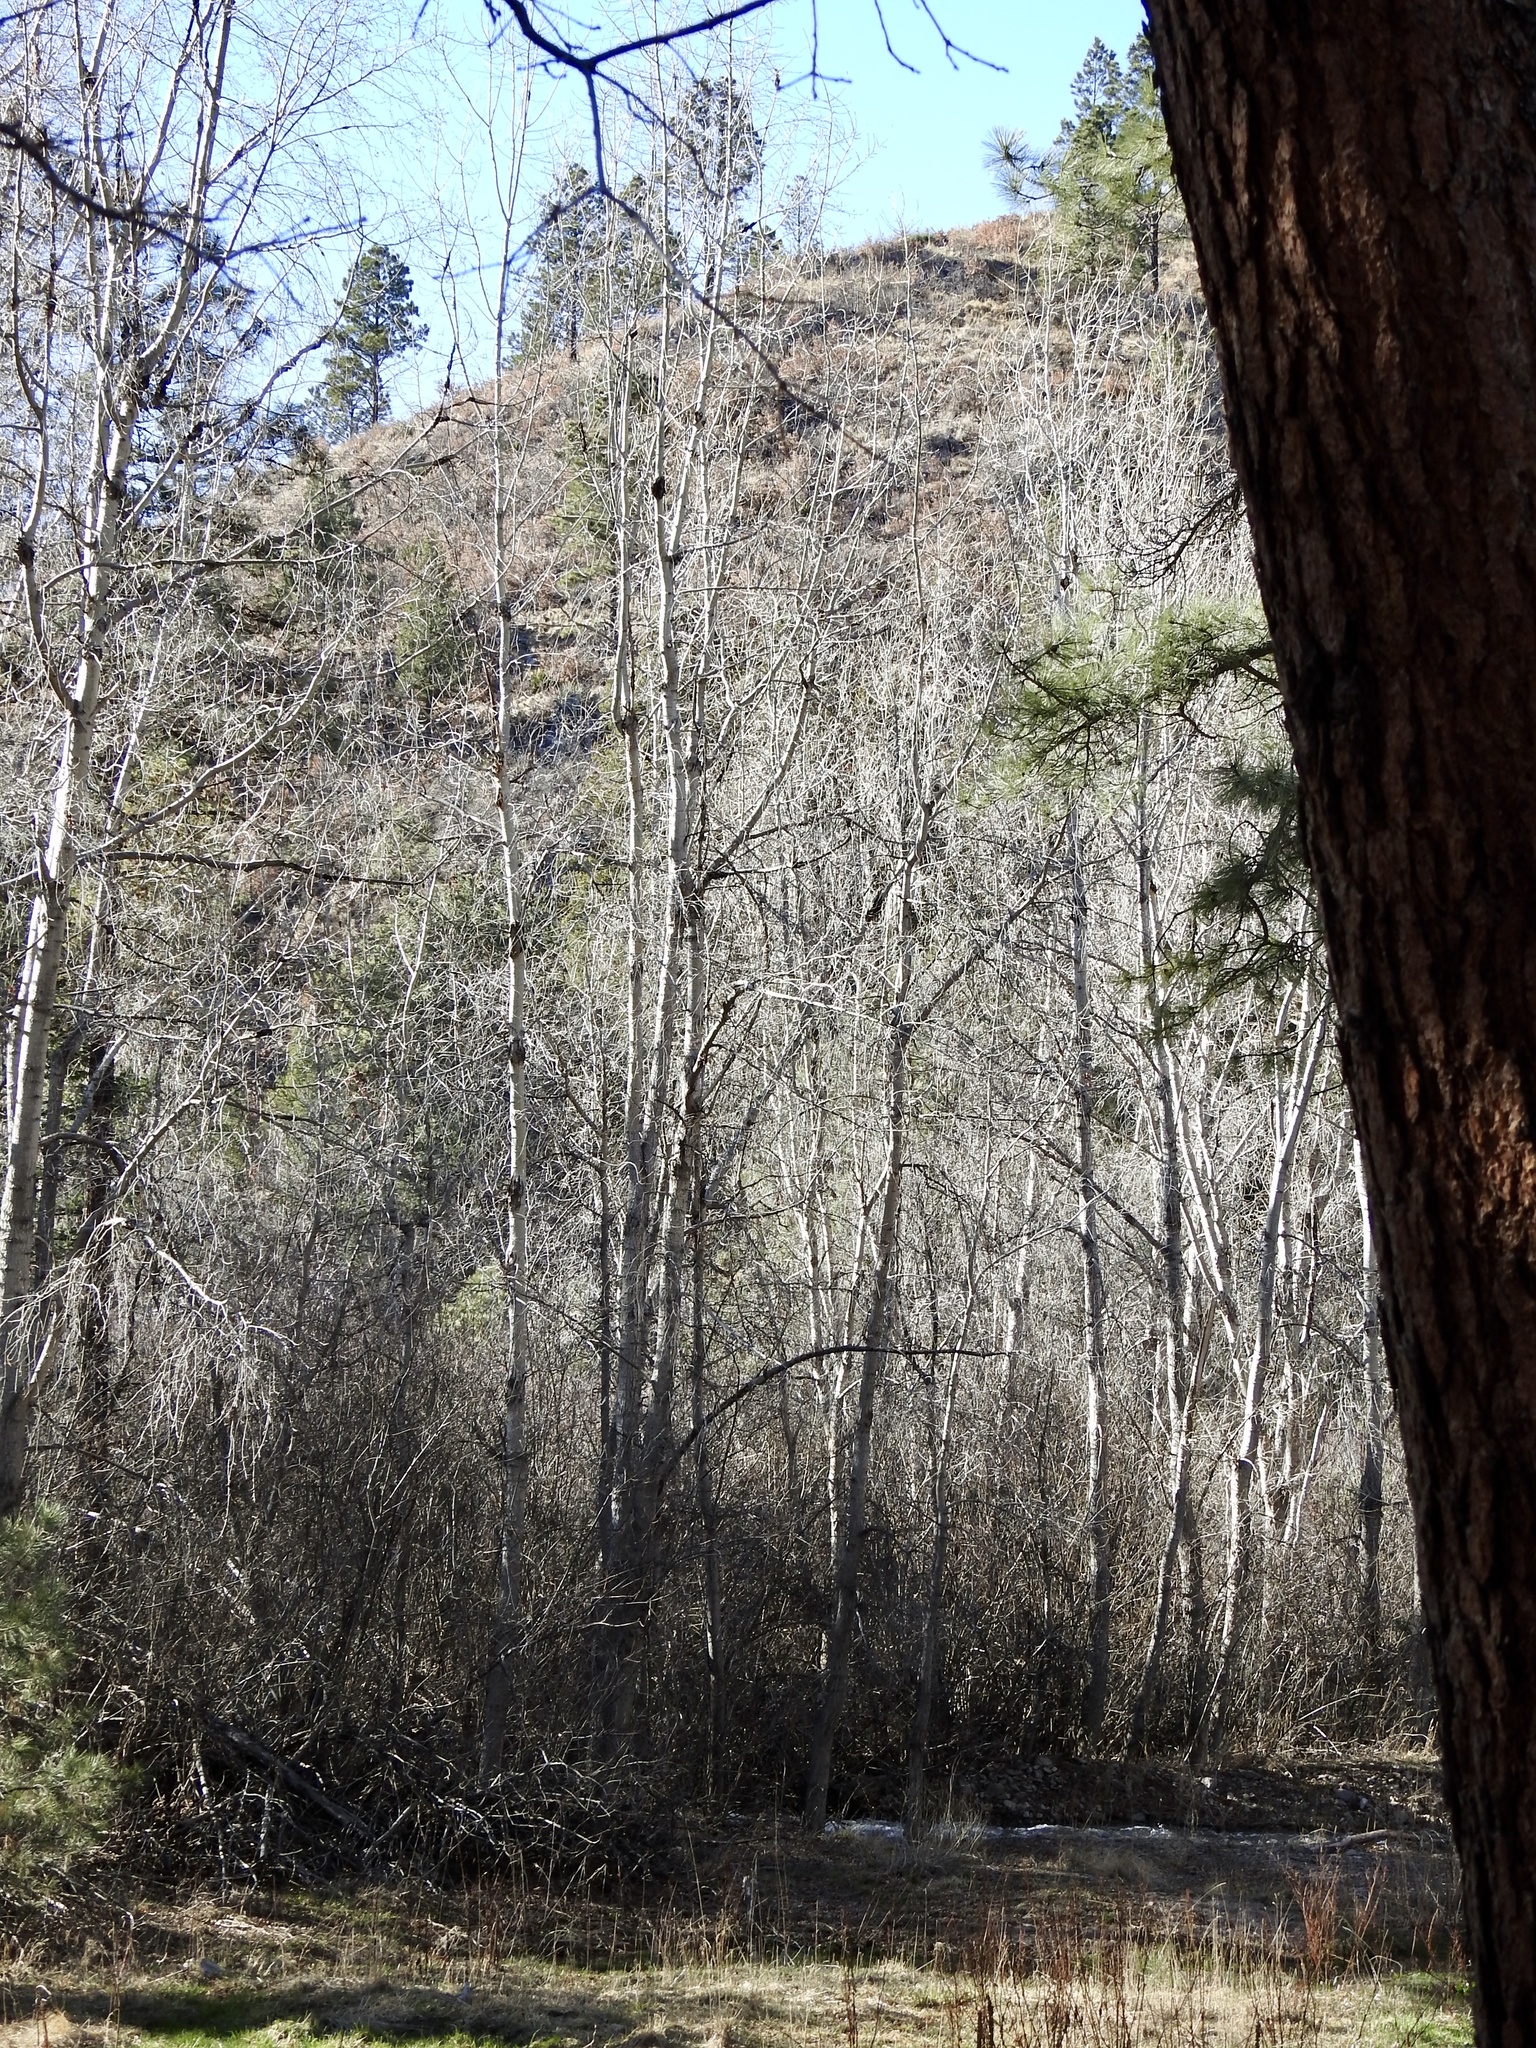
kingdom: Plantae
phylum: Tracheophyta
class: Magnoliopsida
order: Malpighiales
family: Salicaceae
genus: Populus
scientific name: Populus tremuloides
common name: Quaking aspen
